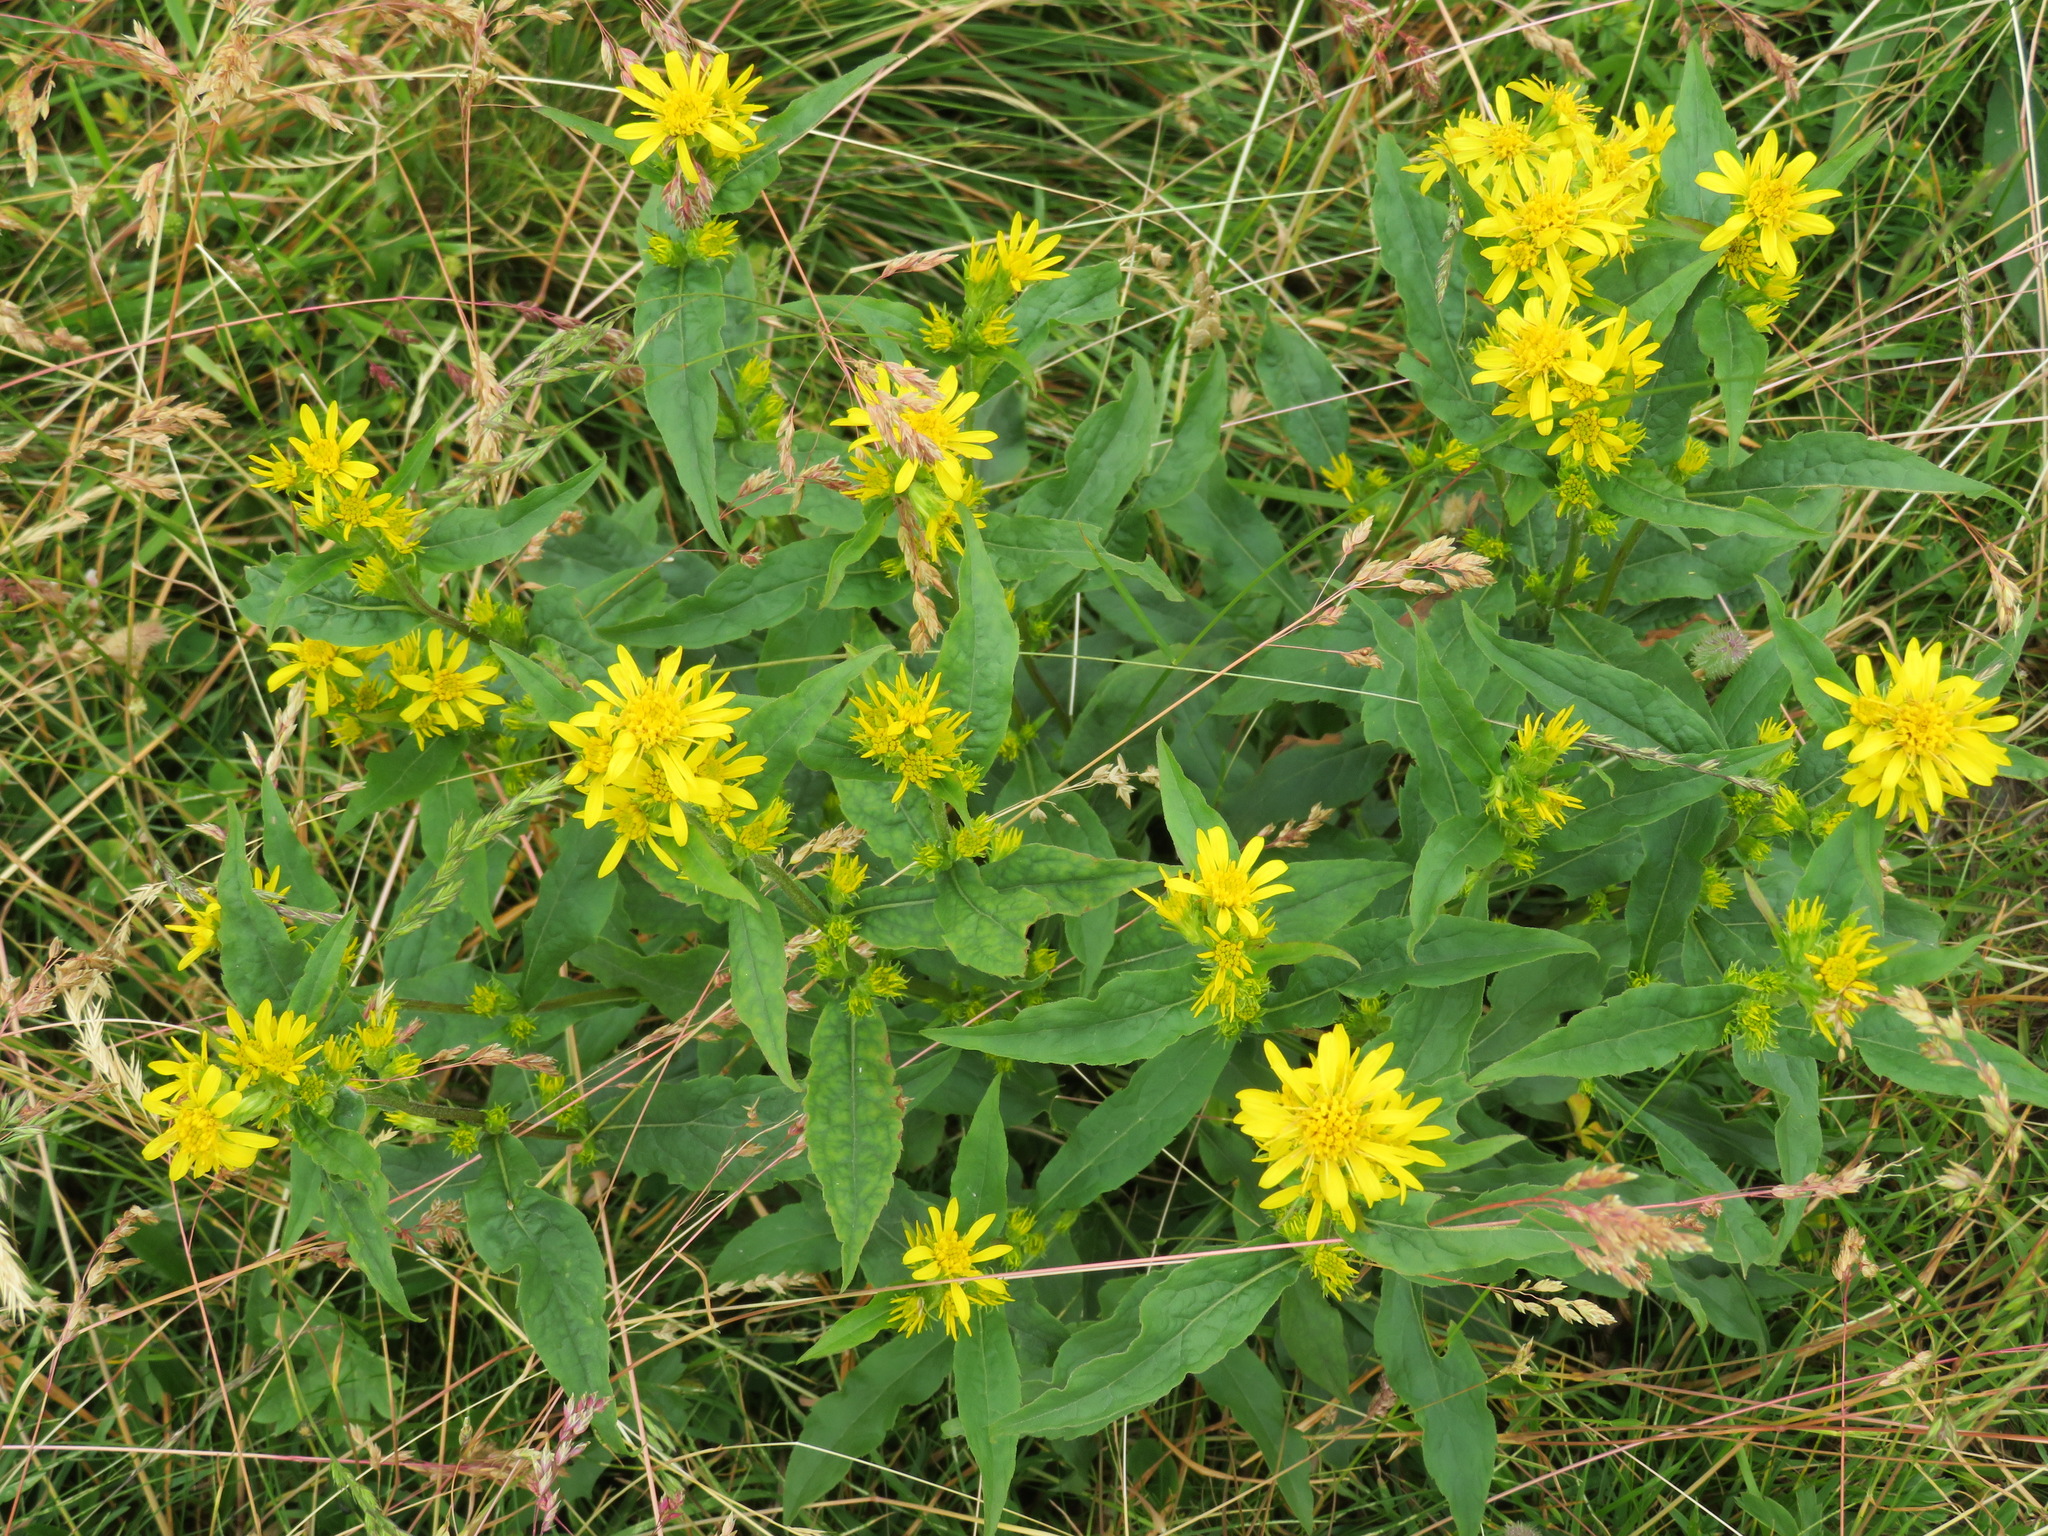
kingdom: Plantae
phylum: Tracheophyta
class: Magnoliopsida
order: Asterales
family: Asteraceae
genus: Solidago
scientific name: Solidago virgaurea
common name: Goldenrod
